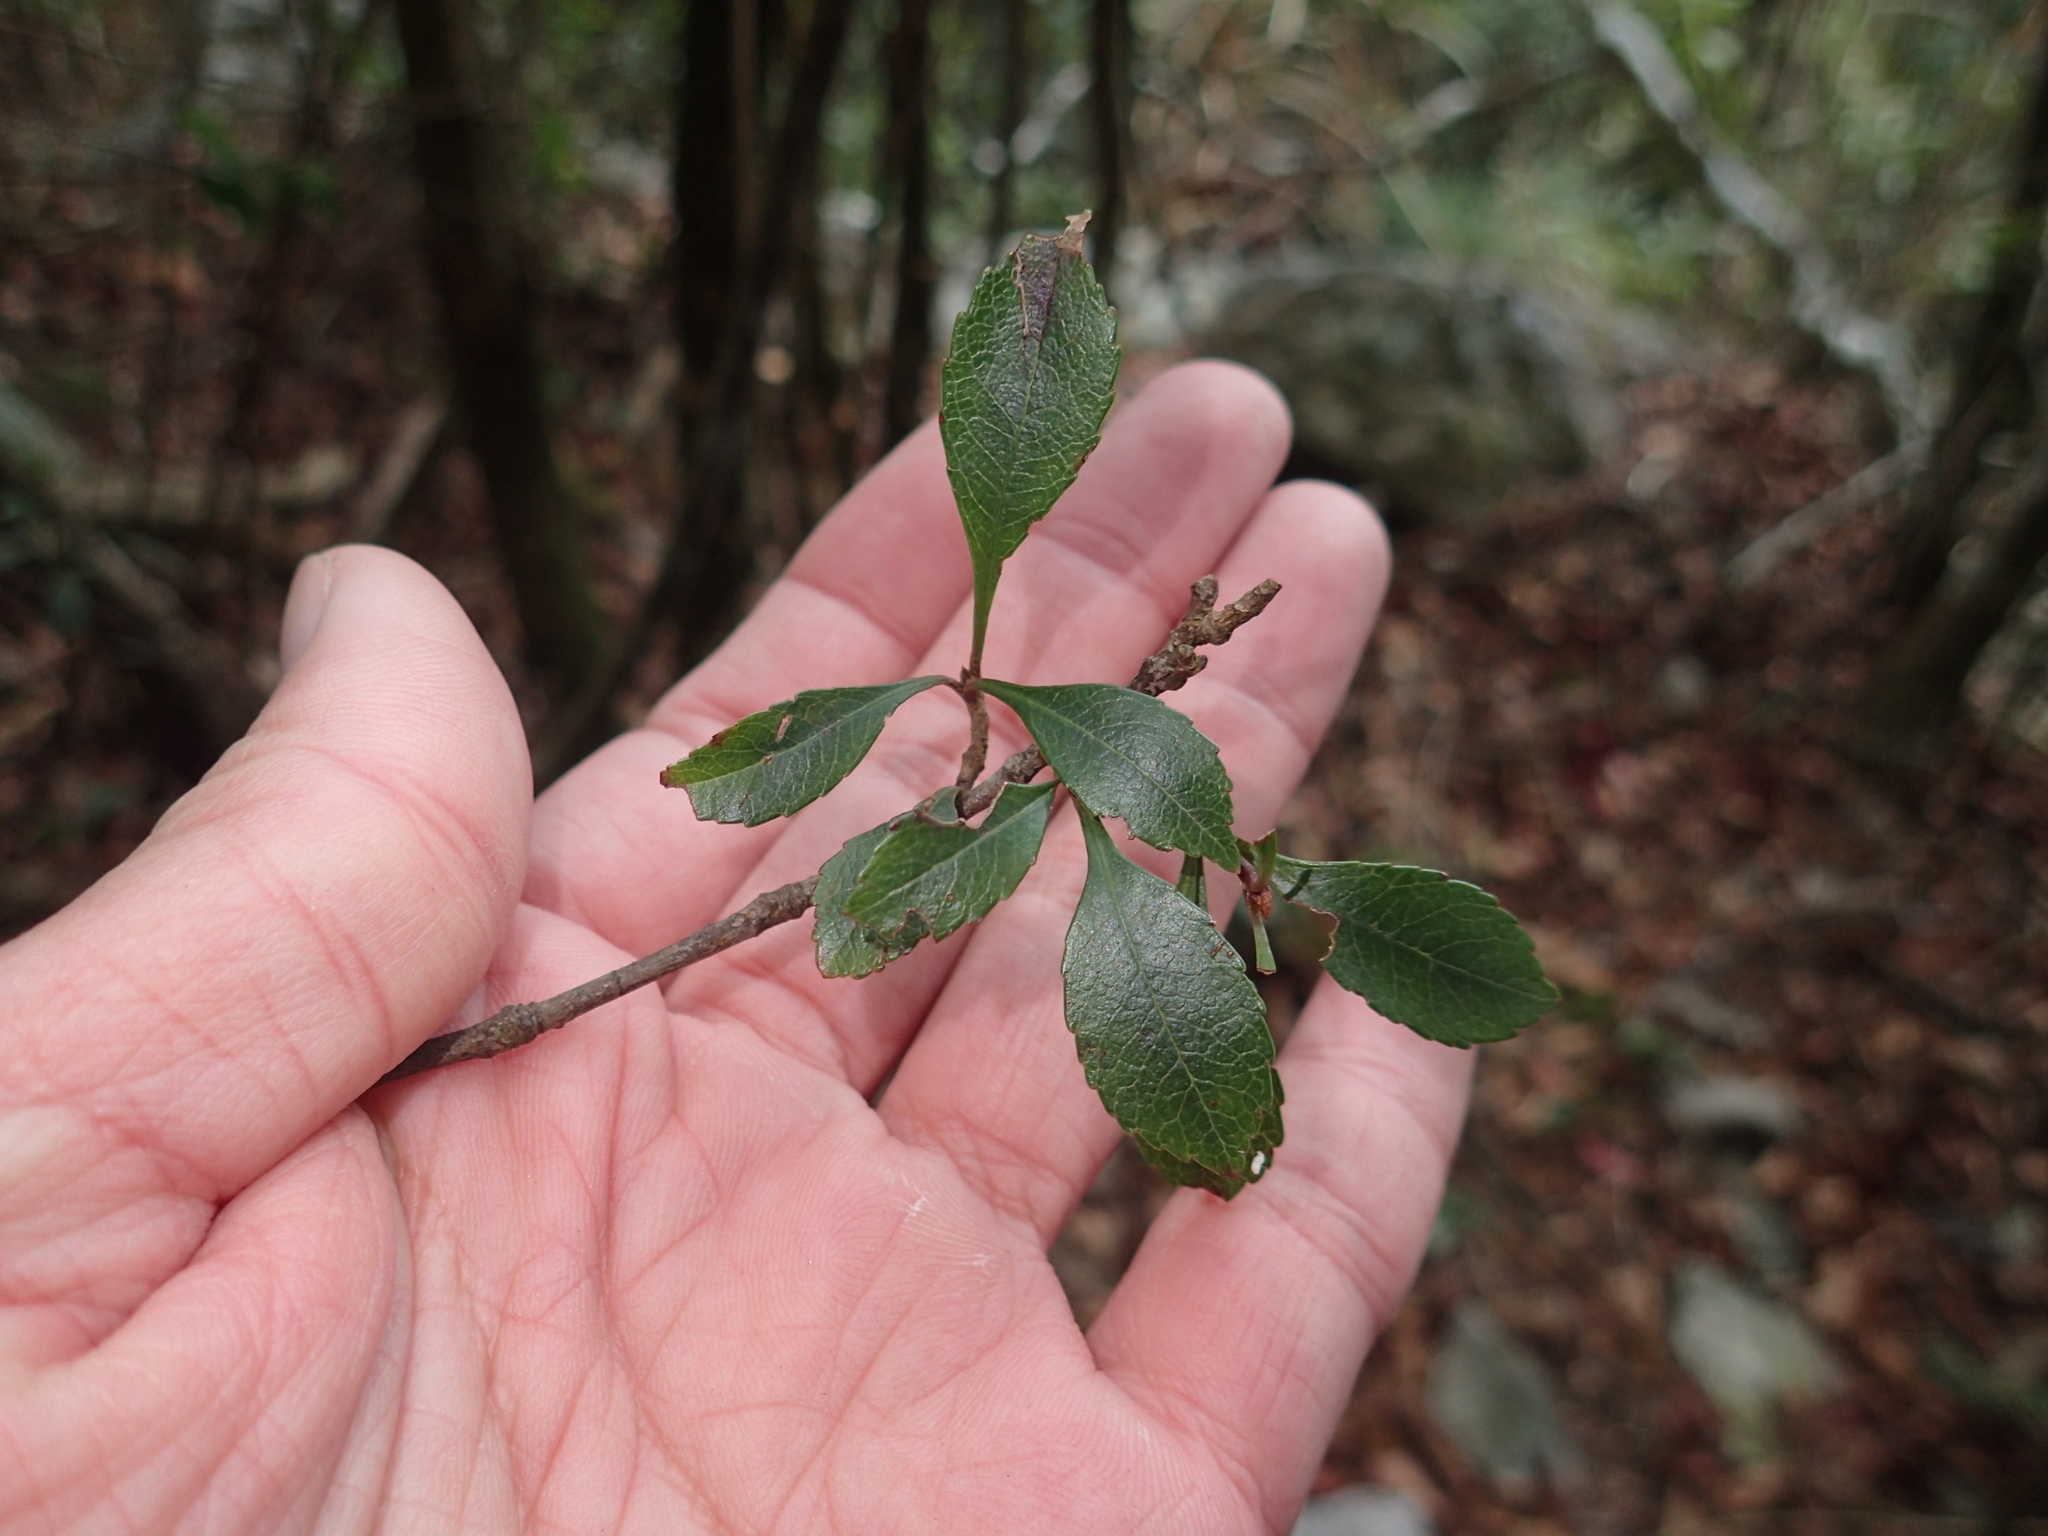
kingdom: Plantae
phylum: Tracheophyta
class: Magnoliopsida
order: Rosales
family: Rosaceae
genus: Rhaphiolepis
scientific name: Rhaphiolepis indica
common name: India-hawthorn
